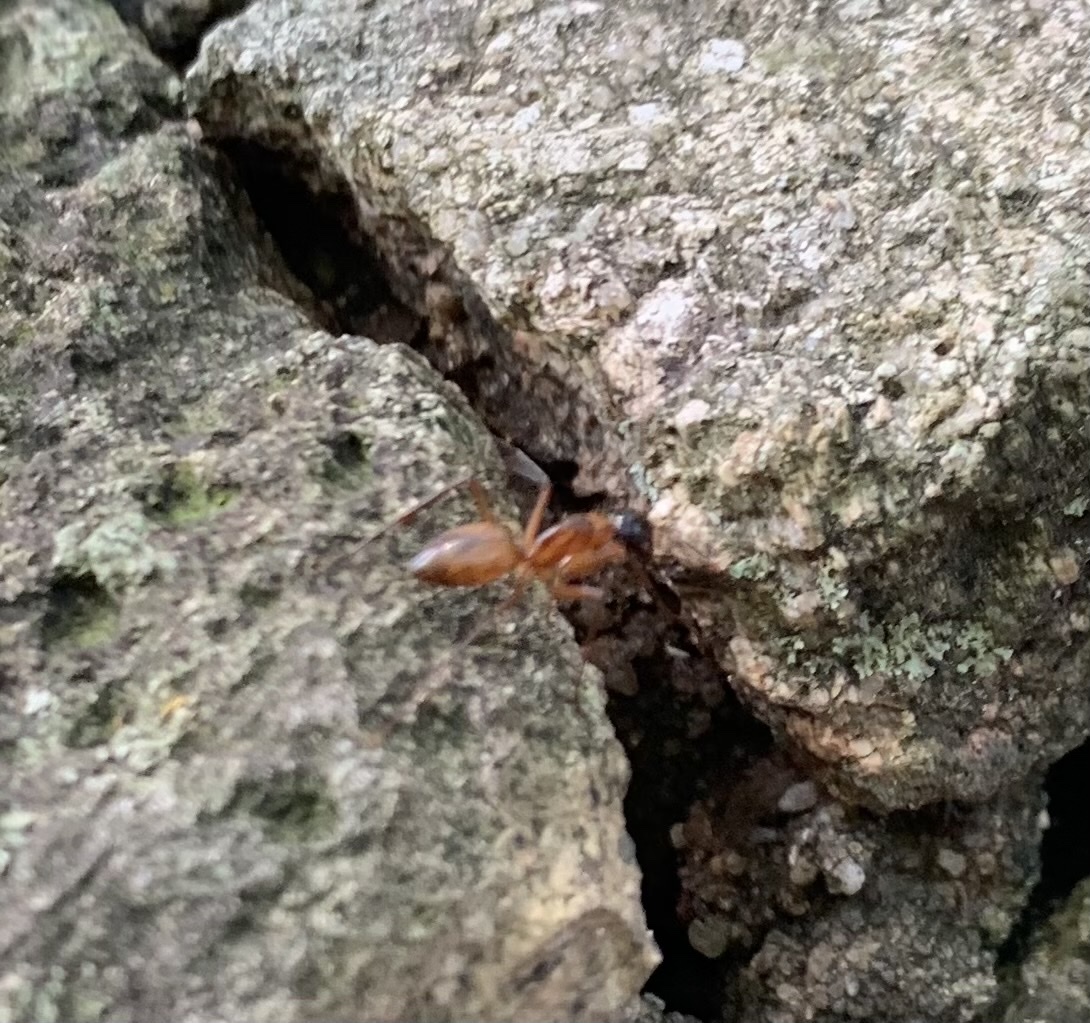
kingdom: Animalia
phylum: Arthropoda
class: Insecta
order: Hymenoptera
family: Formicidae
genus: Camponotus
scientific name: Camponotus americanus
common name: American carpenter ant
